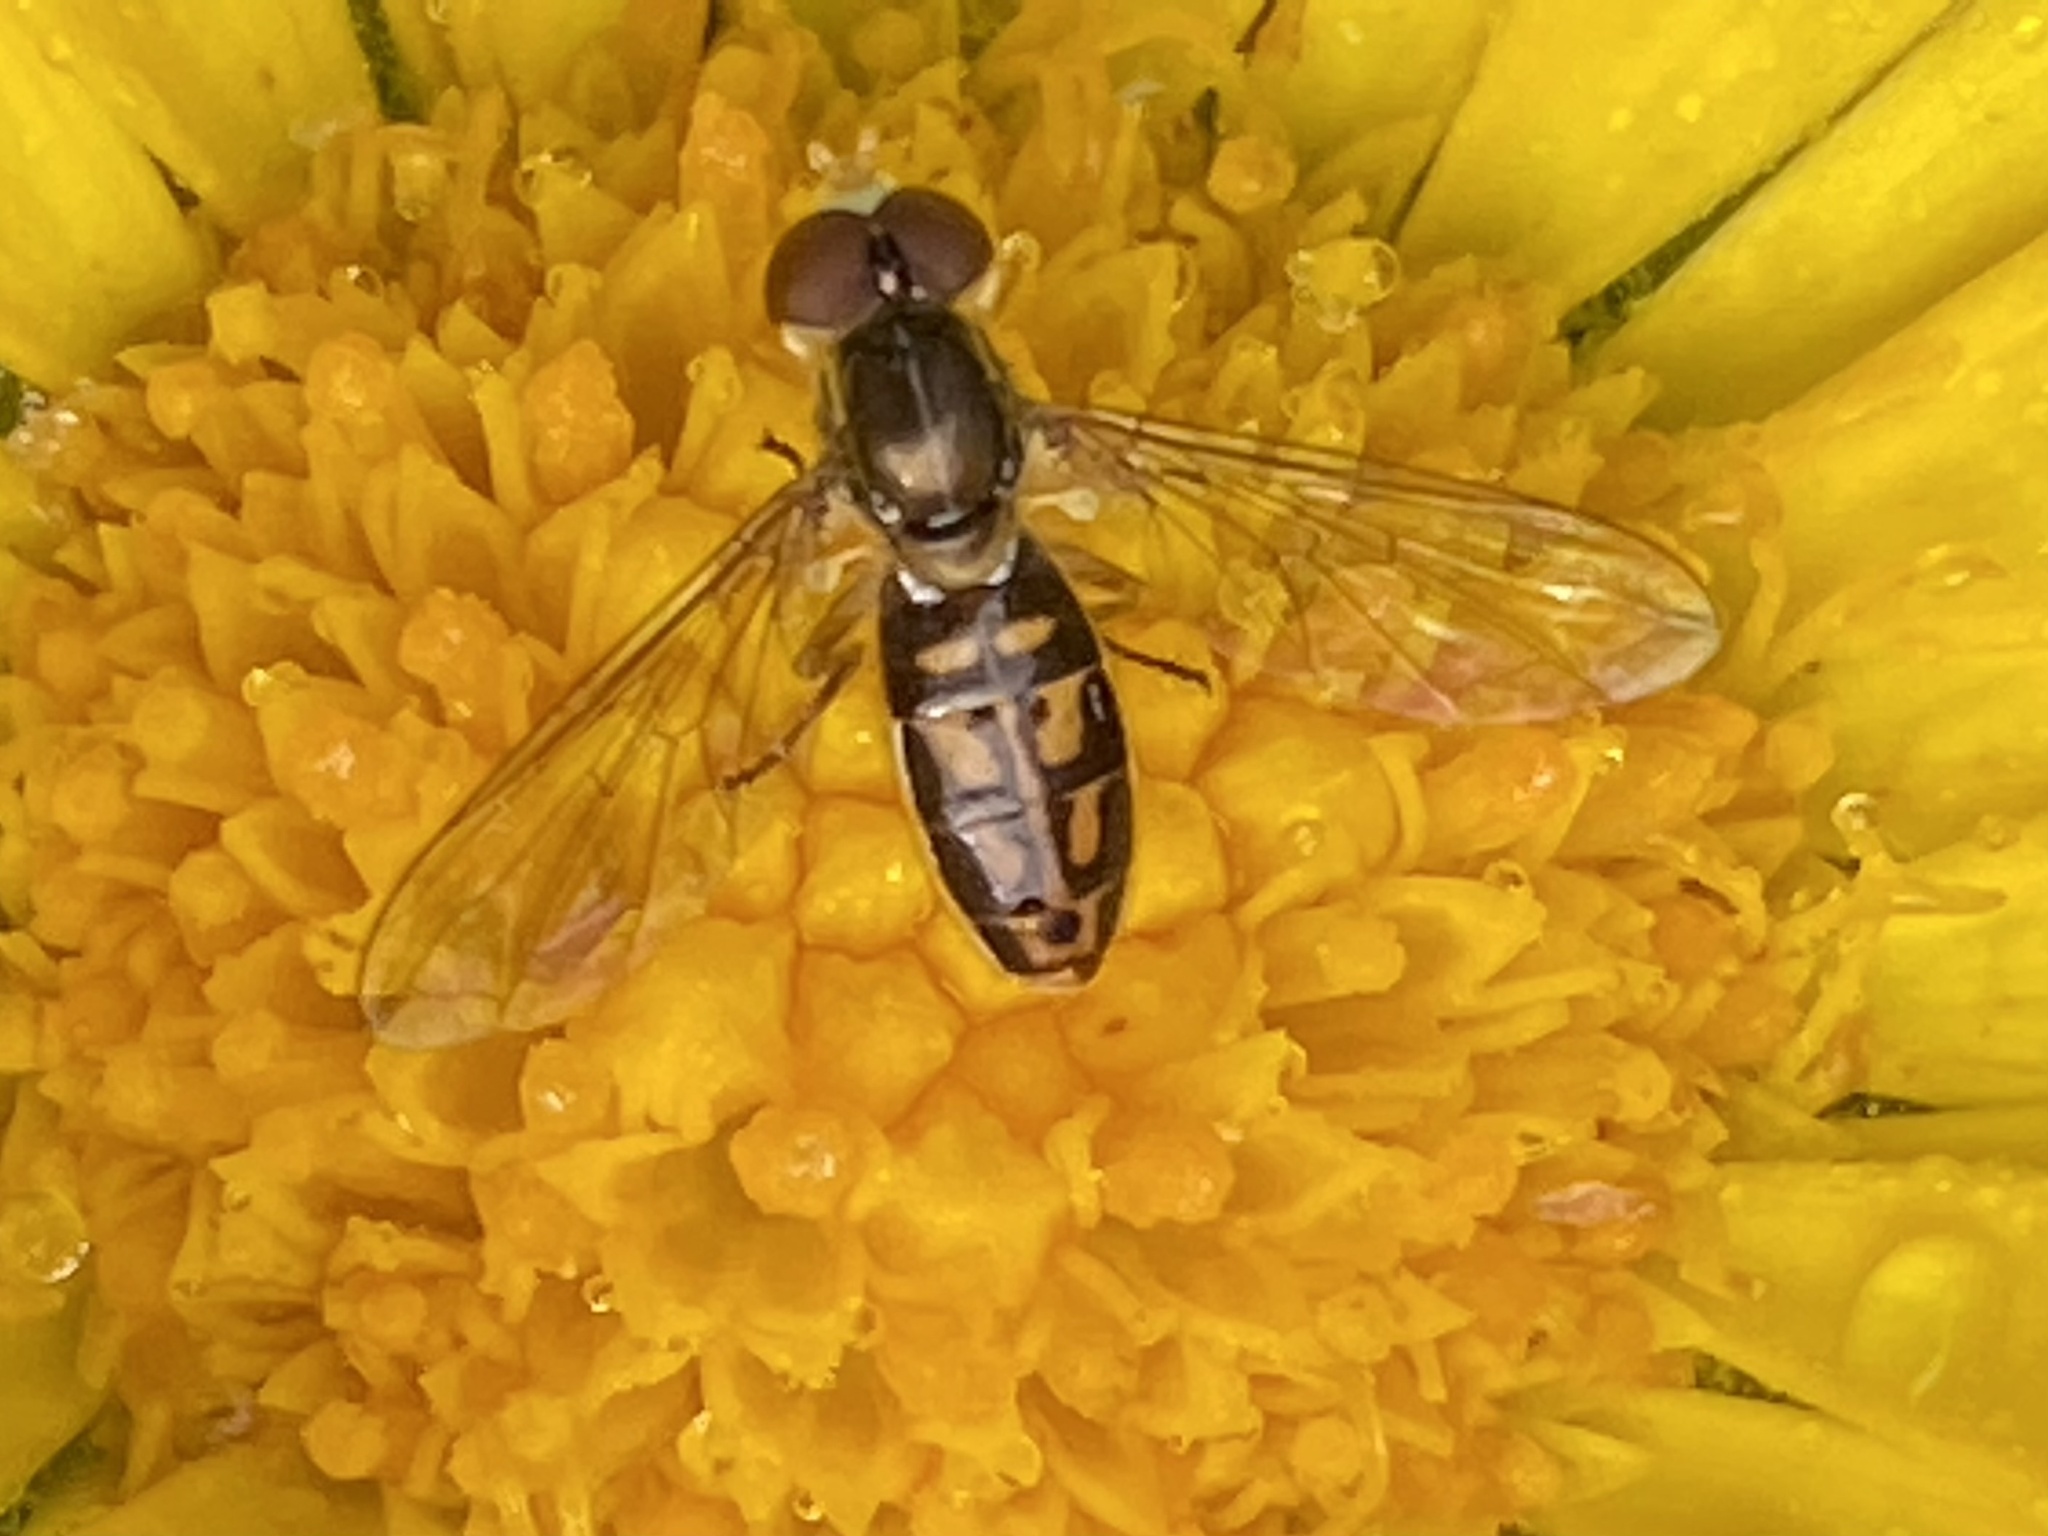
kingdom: Animalia
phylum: Arthropoda
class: Insecta
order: Diptera
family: Syrphidae
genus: Toxomerus
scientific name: Toxomerus marginatus
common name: Syrphid fly
